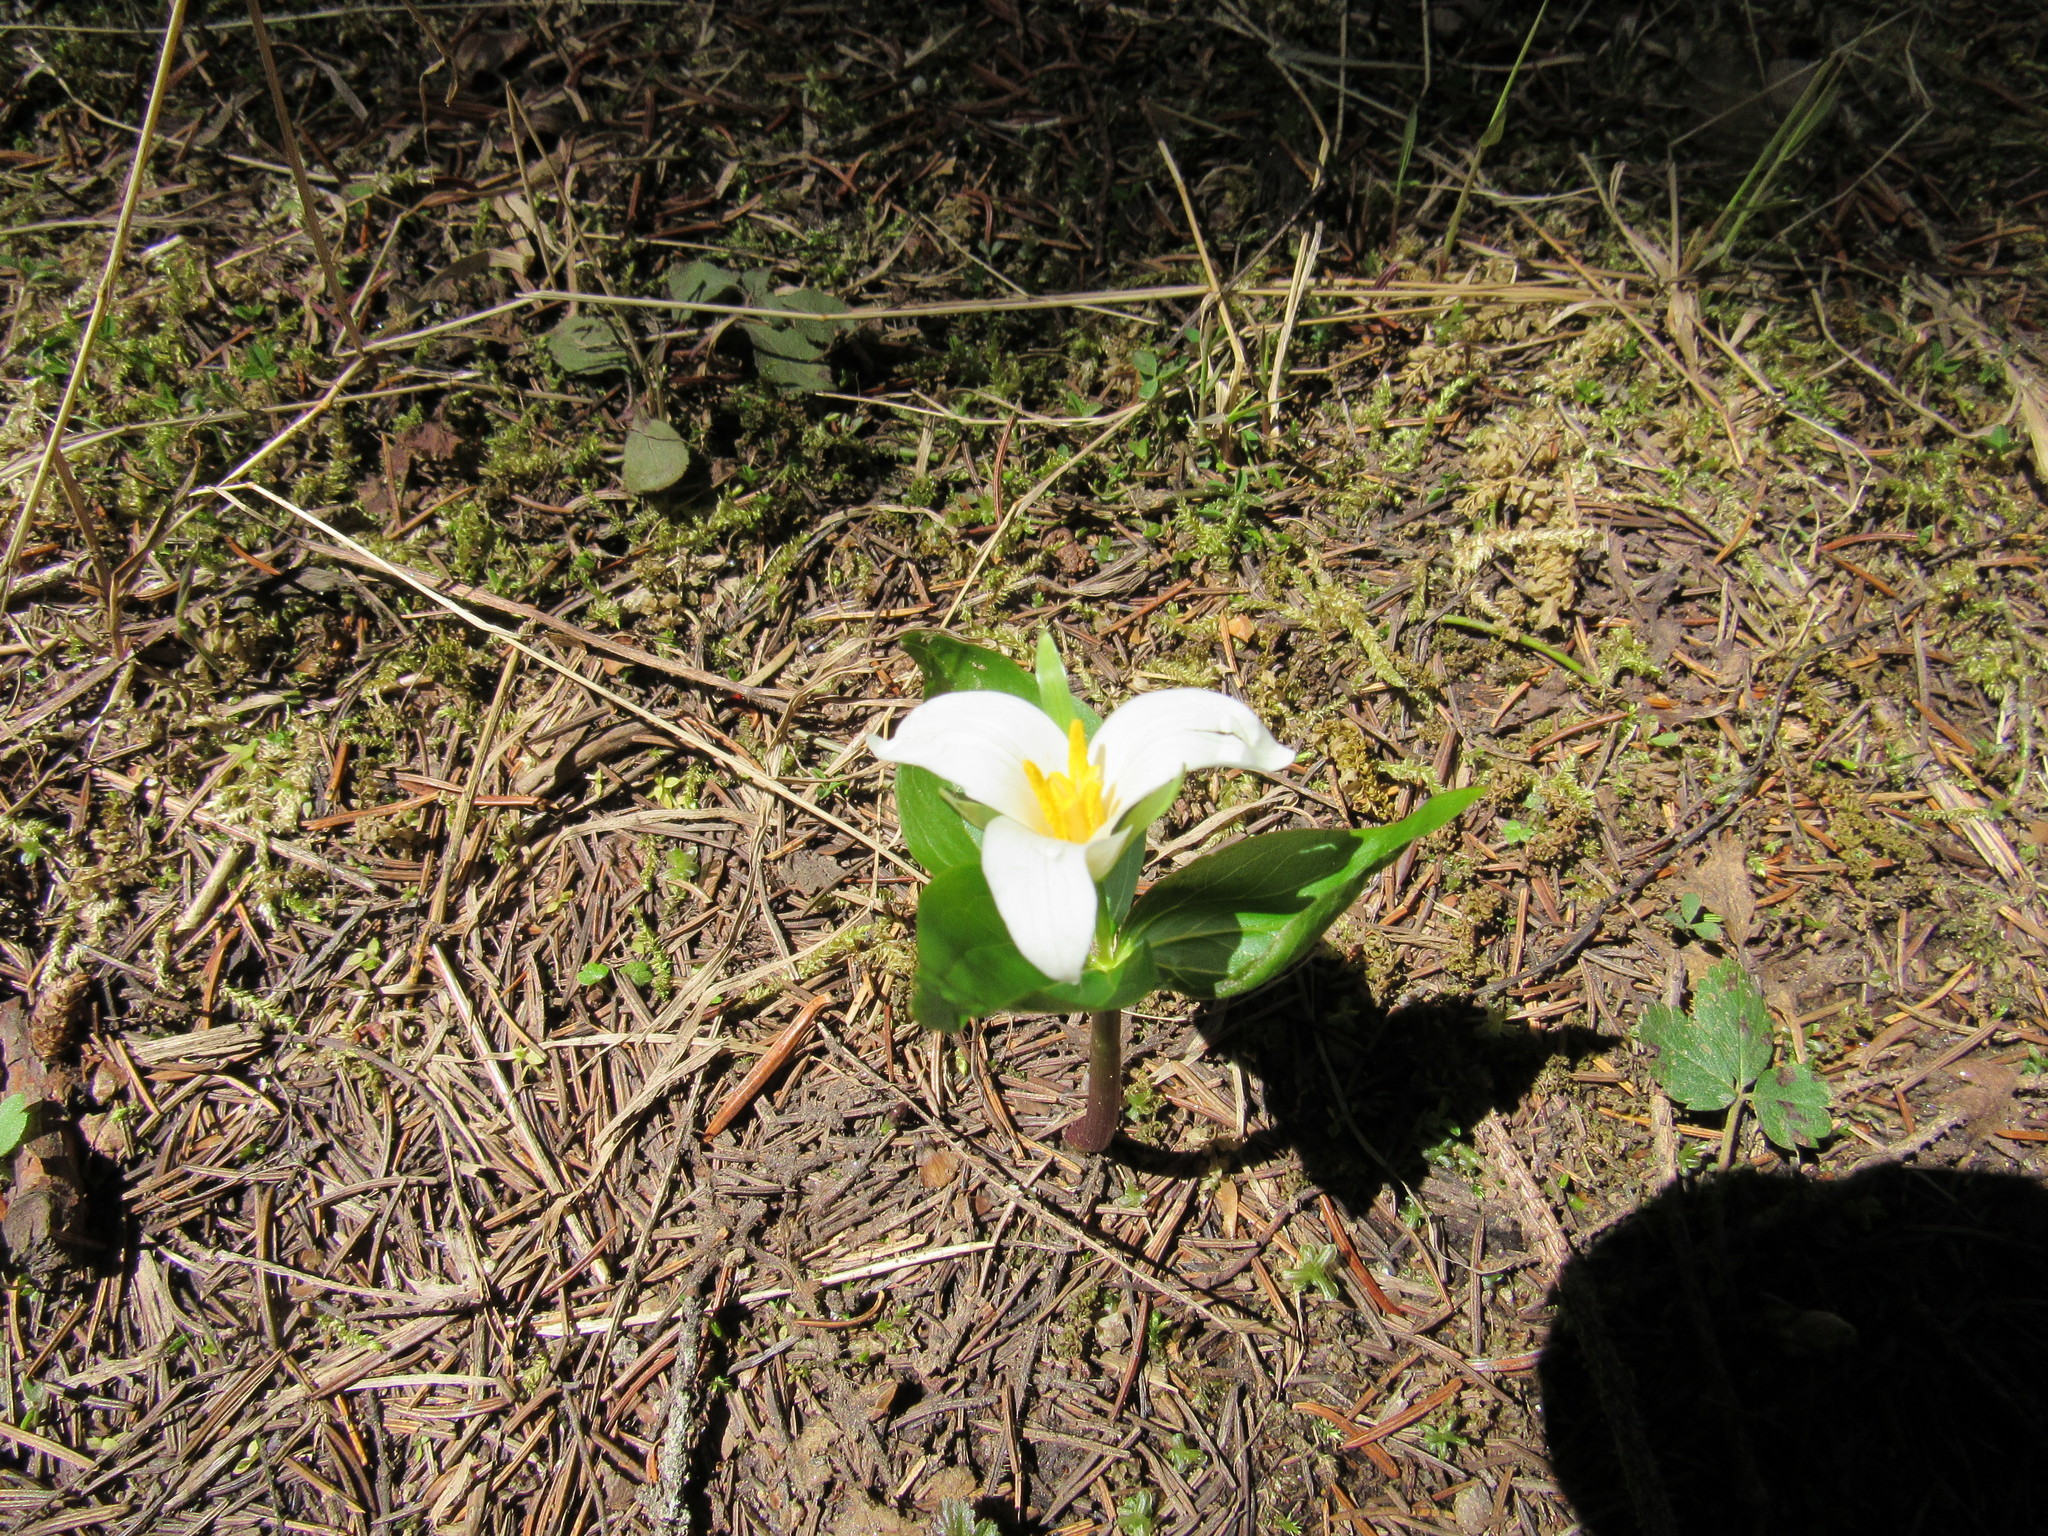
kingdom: Plantae
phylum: Tracheophyta
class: Liliopsida
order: Liliales
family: Melanthiaceae
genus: Trillium
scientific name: Trillium ovatum
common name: Pacific trillium
